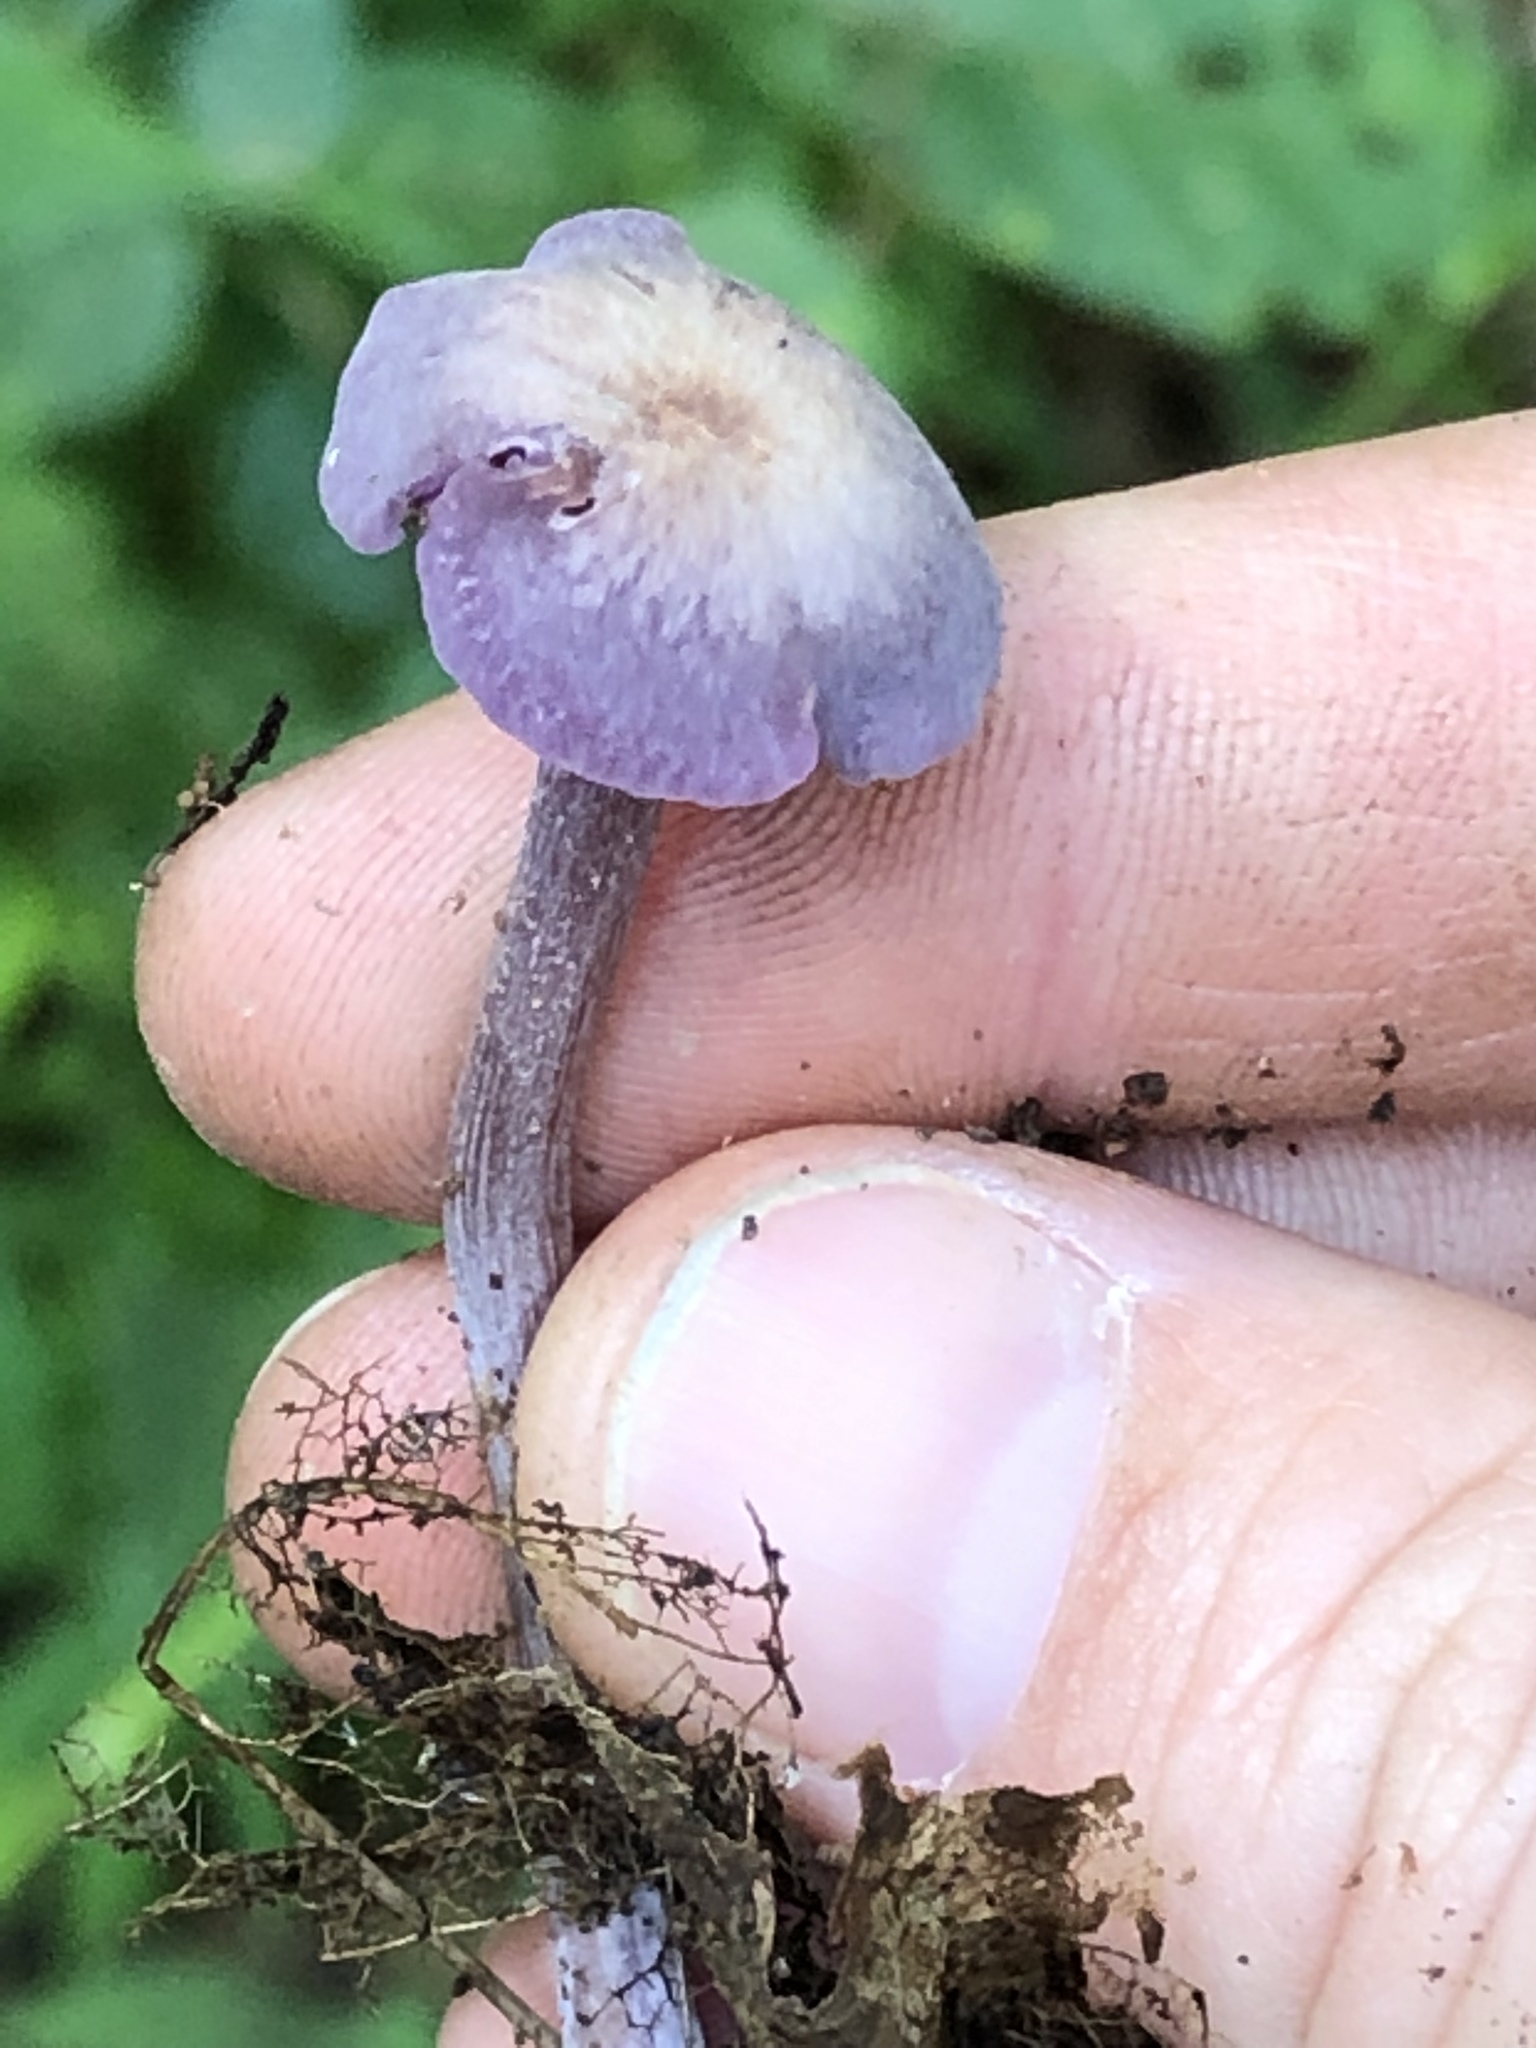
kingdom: Fungi
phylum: Basidiomycota
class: Agaricomycetes
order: Agaricales
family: Hydnangiaceae
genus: Laccaria
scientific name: Laccaria amethystina
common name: Amethyst deceiver
